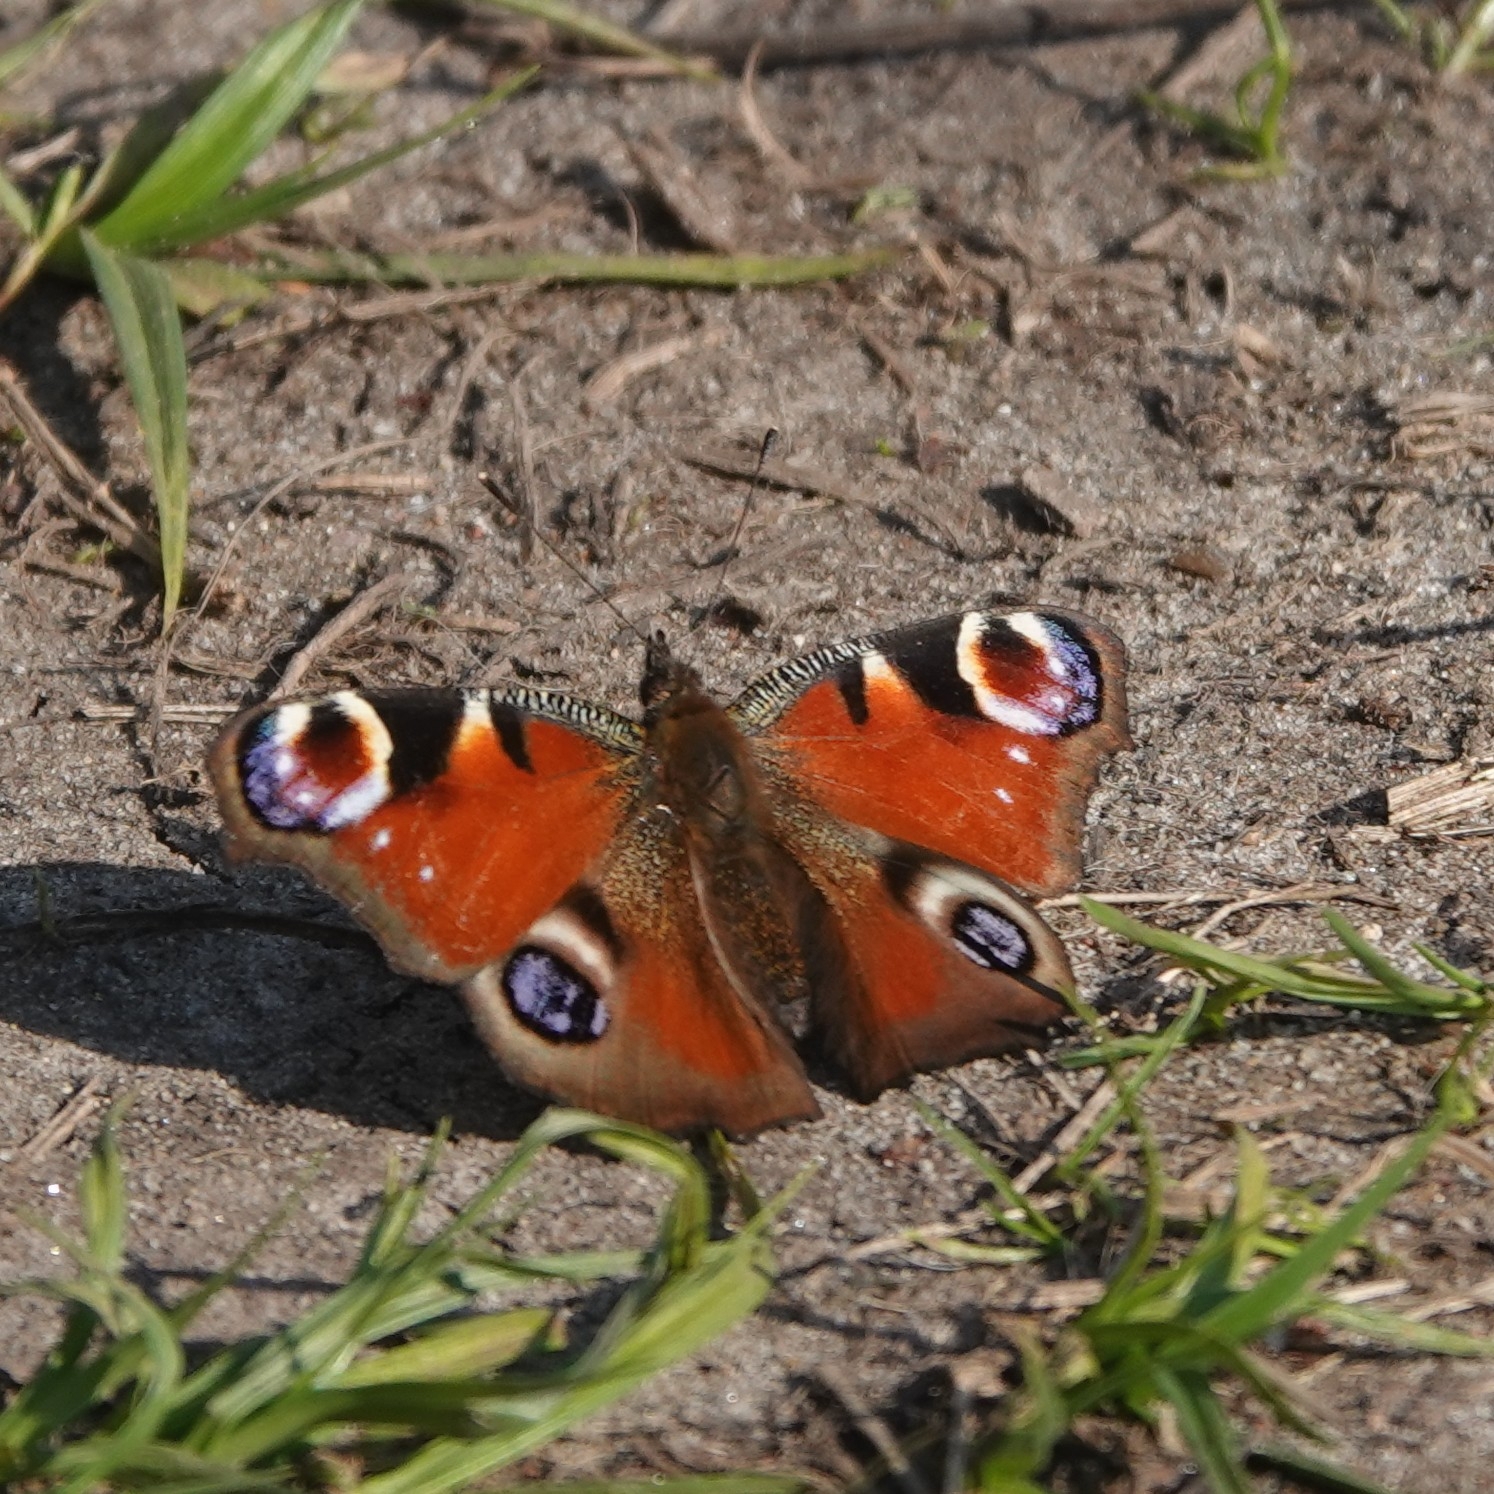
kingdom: Animalia
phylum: Arthropoda
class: Insecta
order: Lepidoptera
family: Nymphalidae
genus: Aglais
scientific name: Aglais io
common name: Peacock
